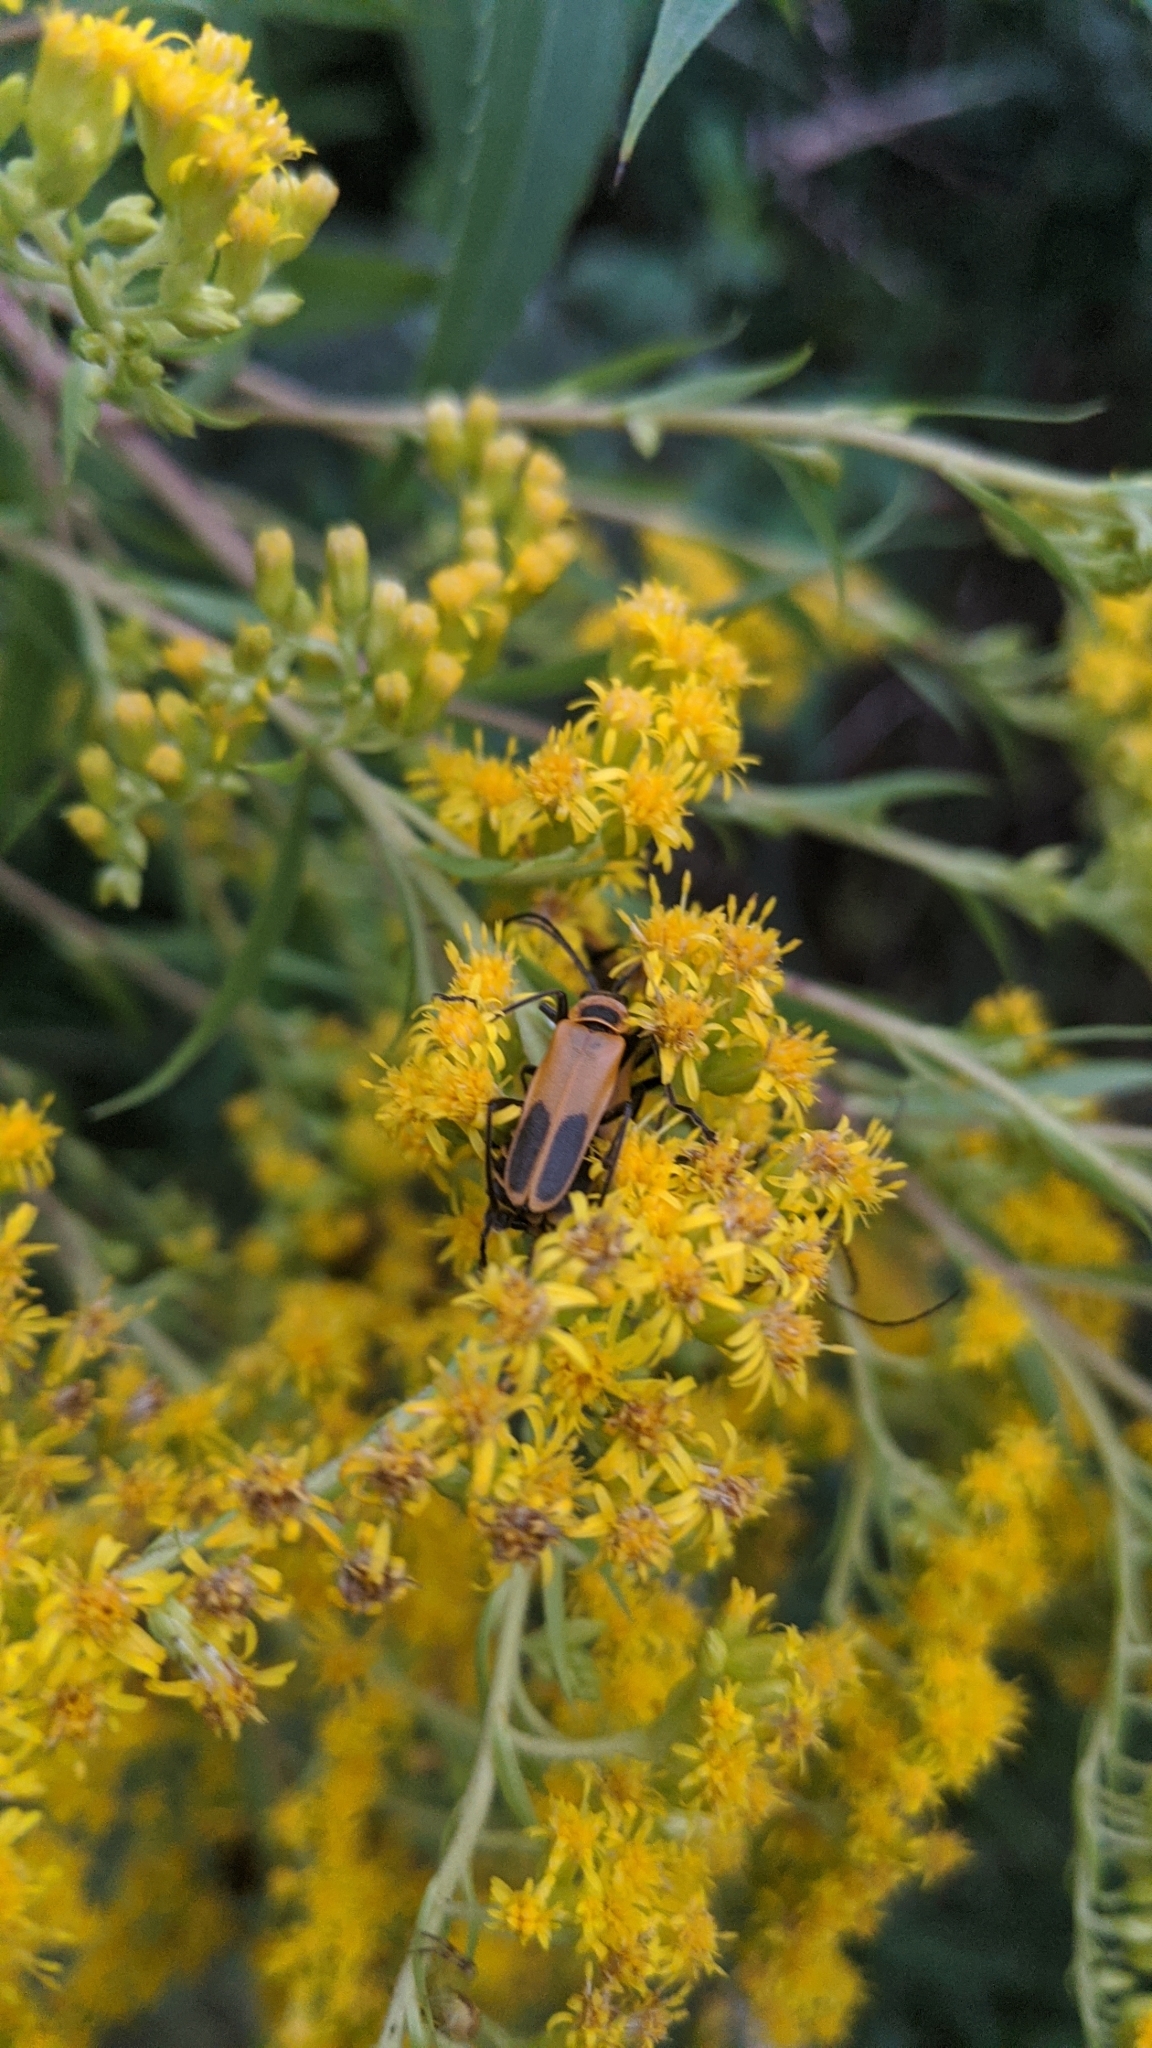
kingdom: Animalia
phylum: Arthropoda
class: Insecta
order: Coleoptera
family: Cantharidae
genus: Chauliognathus
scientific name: Chauliognathus pensylvanicus
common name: Goldenrod soldier beetle
